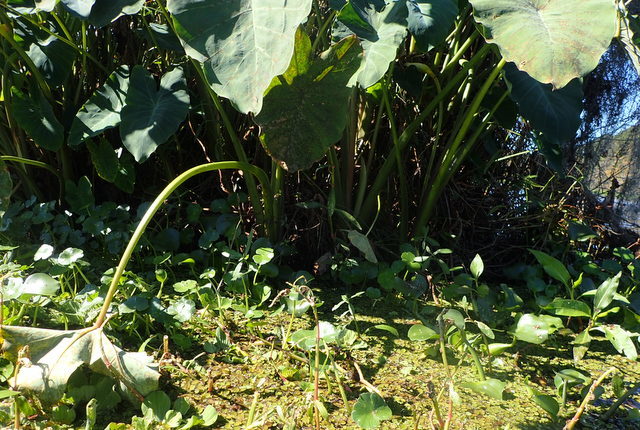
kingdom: Plantae
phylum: Tracheophyta
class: Liliopsida
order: Alismatales
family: Araceae
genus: Colocasia
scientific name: Colocasia esculenta
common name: Taro
